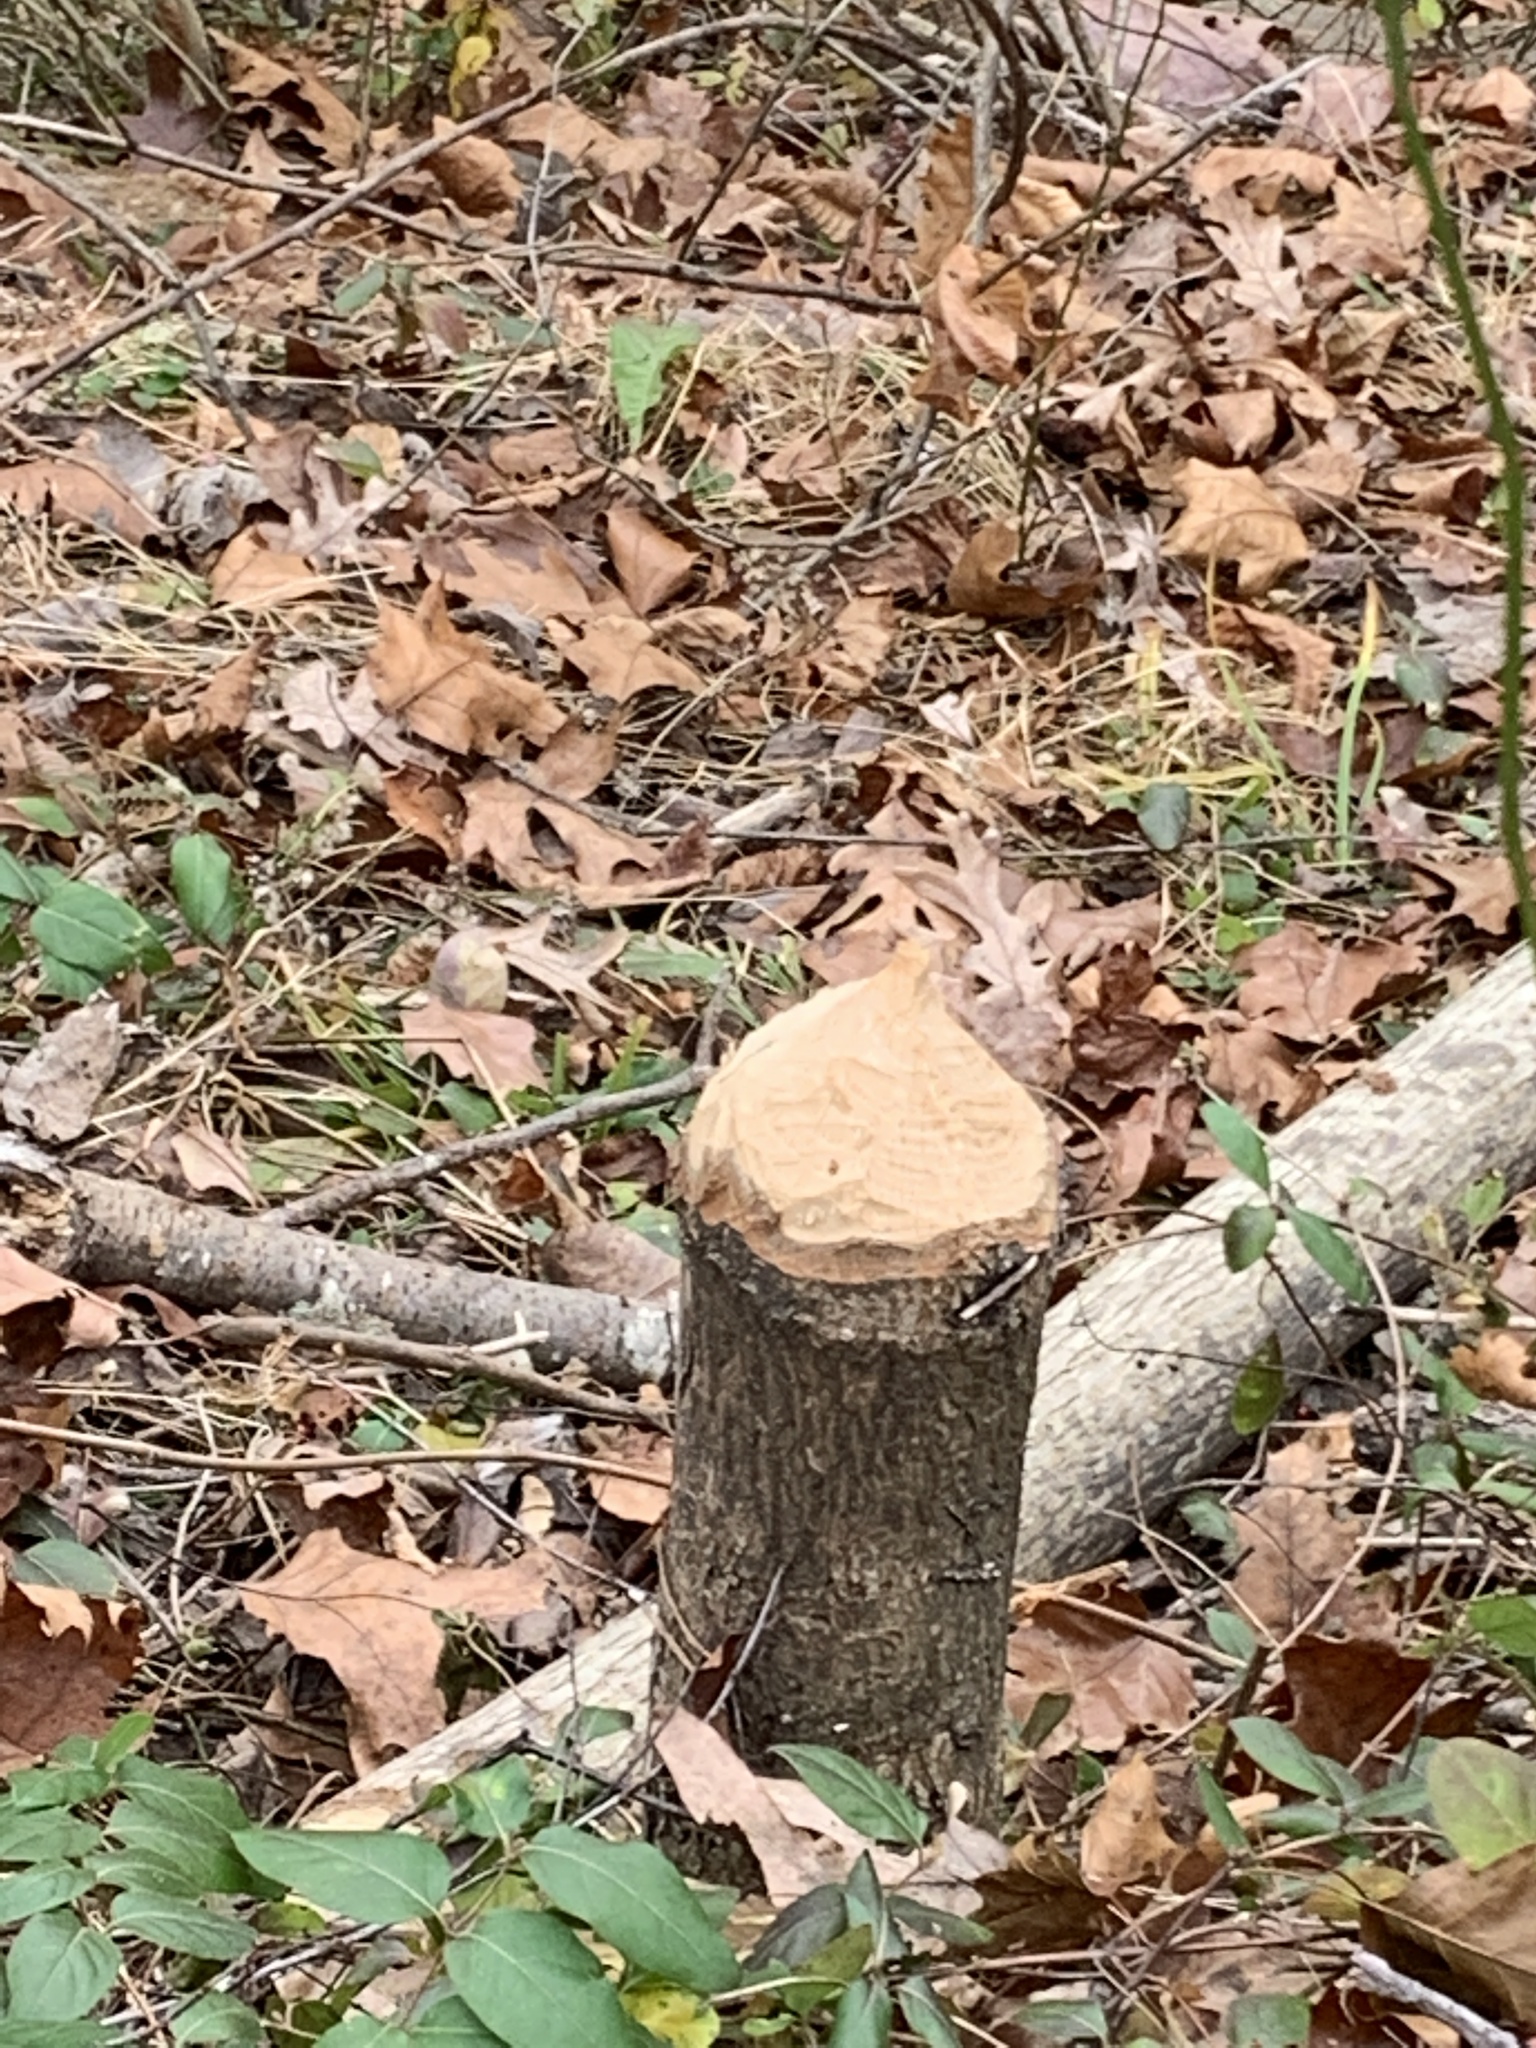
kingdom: Animalia
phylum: Chordata
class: Mammalia
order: Rodentia
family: Castoridae
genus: Castor
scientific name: Castor canadensis
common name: American beaver
